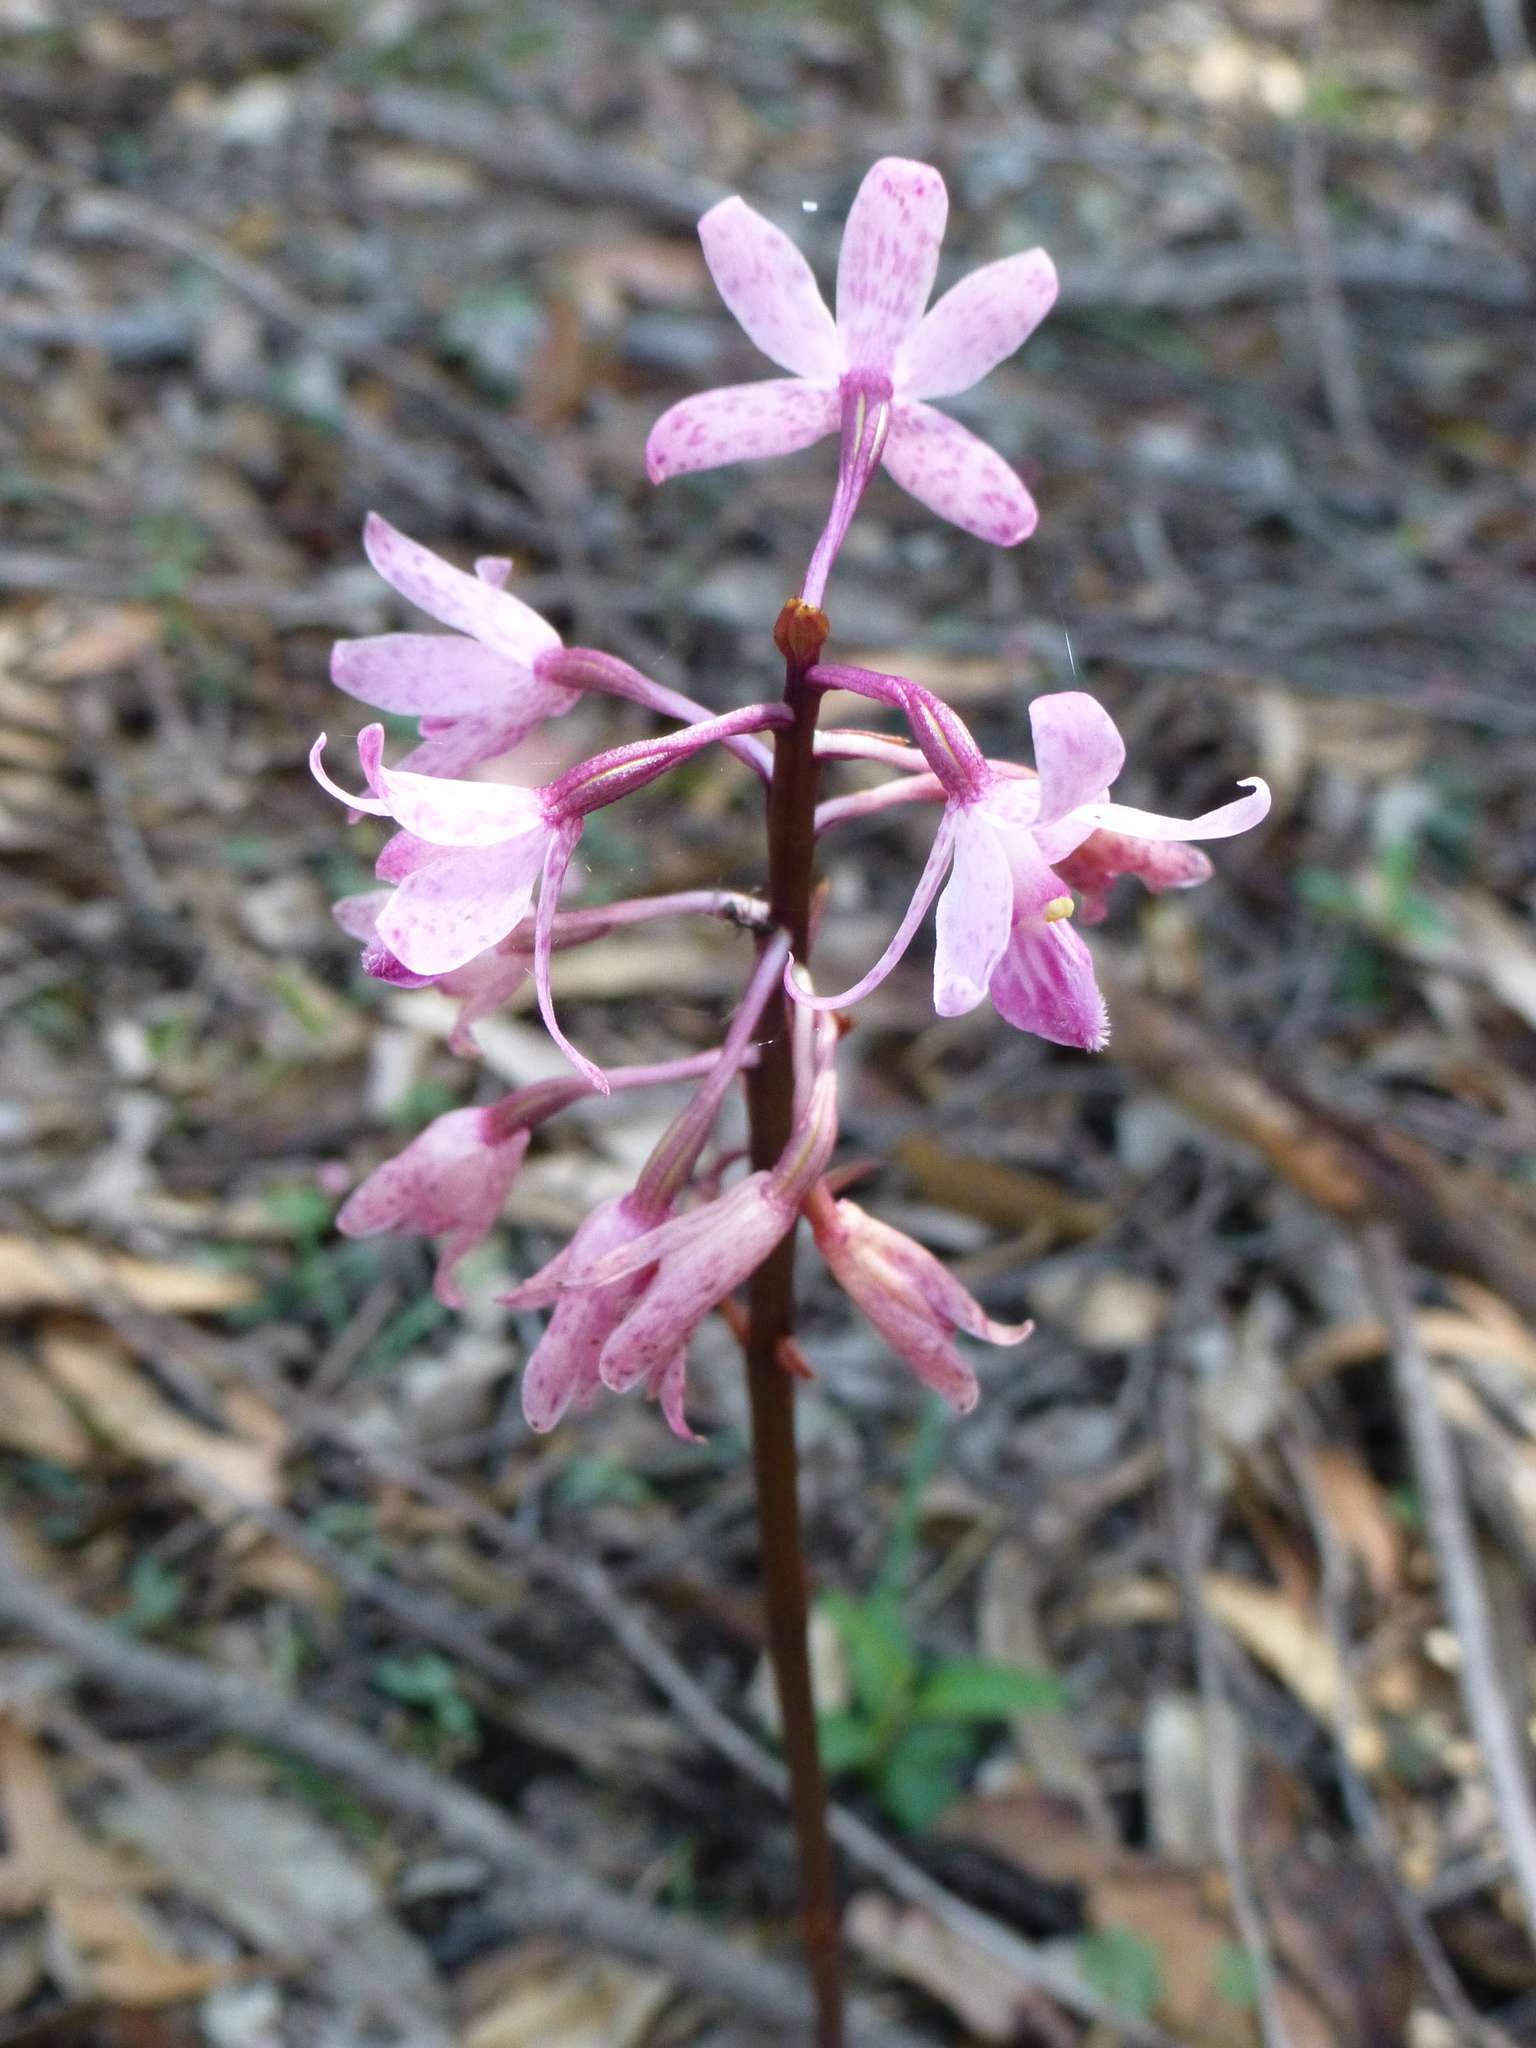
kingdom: Plantae
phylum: Tracheophyta
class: Liliopsida
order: Asparagales
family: Orchidaceae
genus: Dipodium
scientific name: Dipodium roseum
